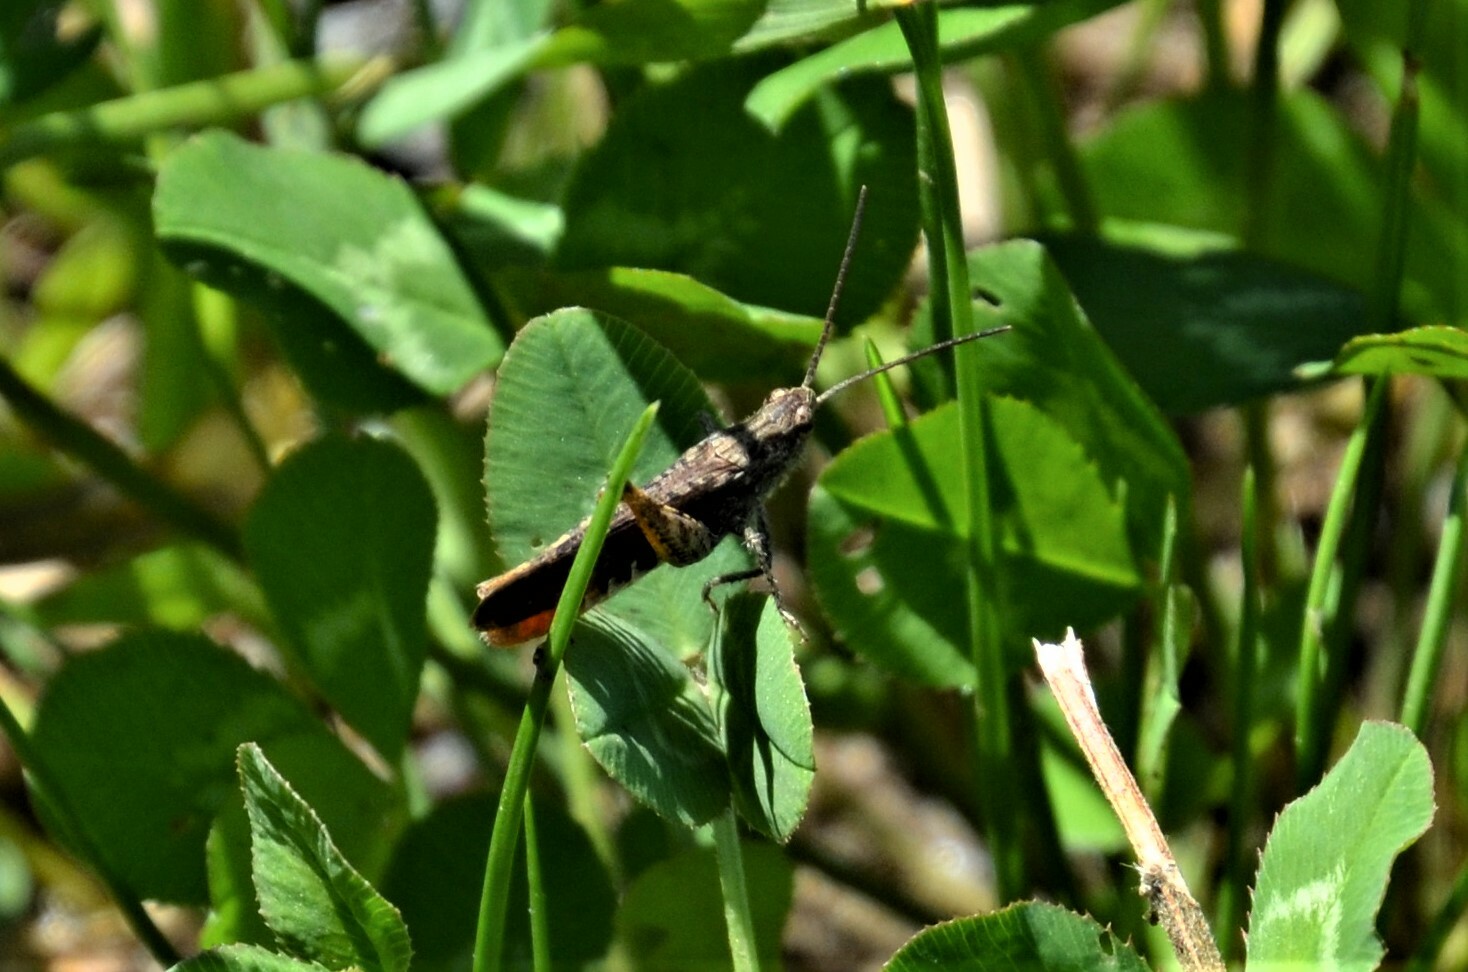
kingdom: Animalia
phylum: Arthropoda
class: Insecta
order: Orthoptera
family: Acrididae
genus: Chorthippus
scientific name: Chorthippus brunneus
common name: Field grasshopper
